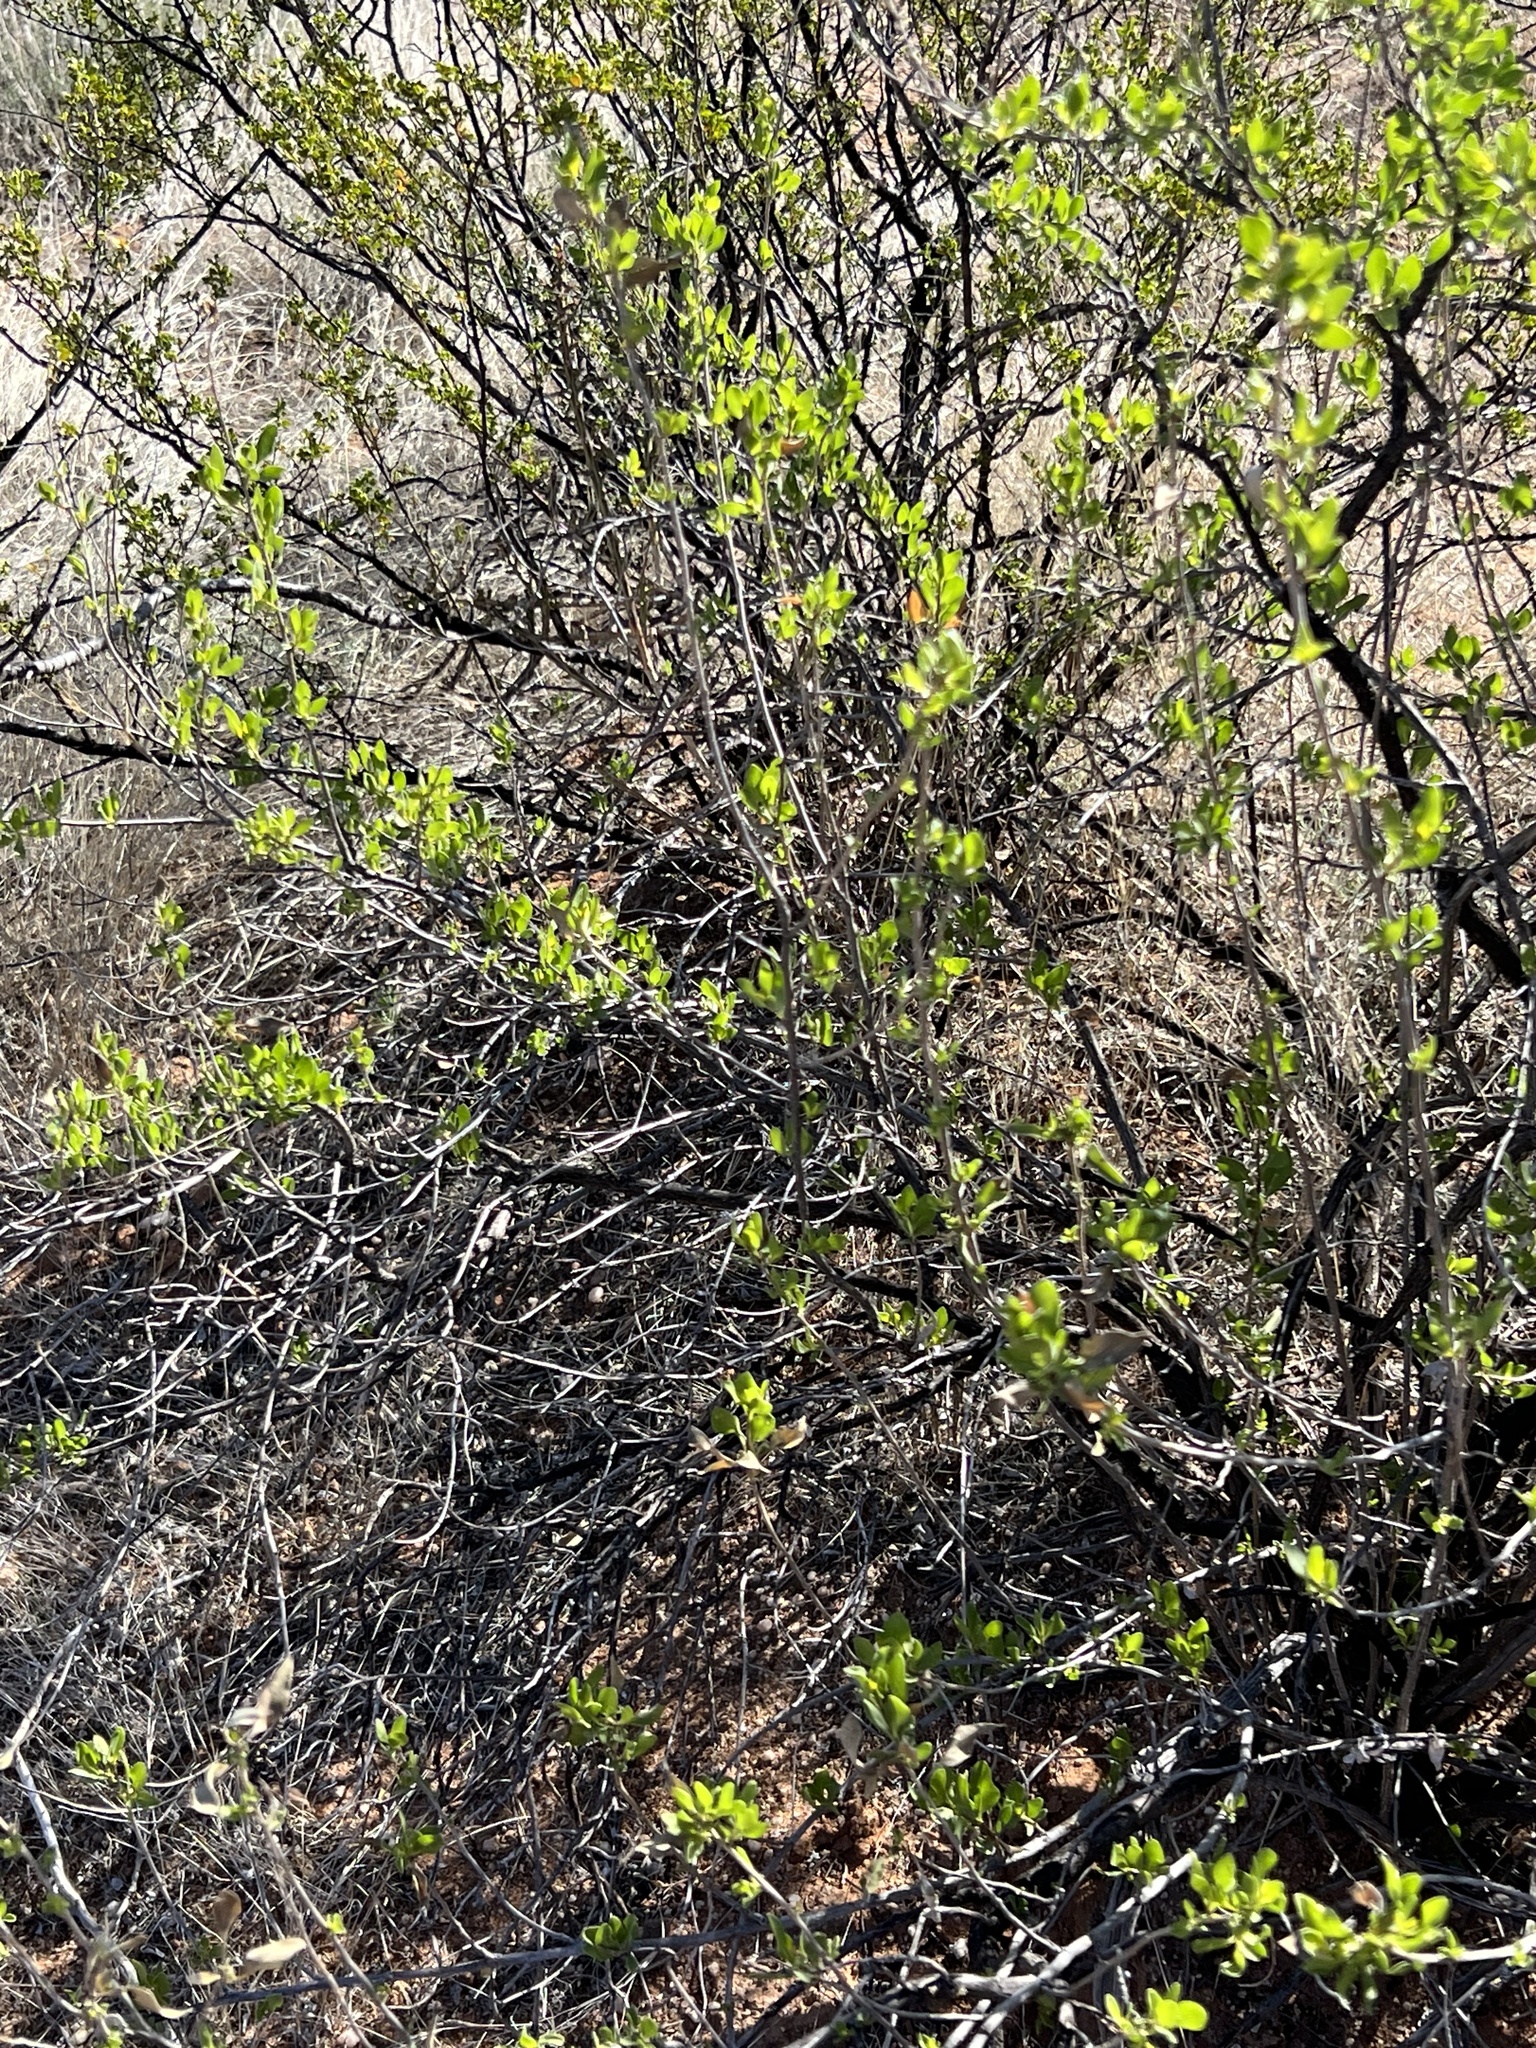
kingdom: Plantae
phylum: Tracheophyta
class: Magnoliopsida
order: Asterales
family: Asteraceae
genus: Flourensia
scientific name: Flourensia cernua
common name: Varnishbush
